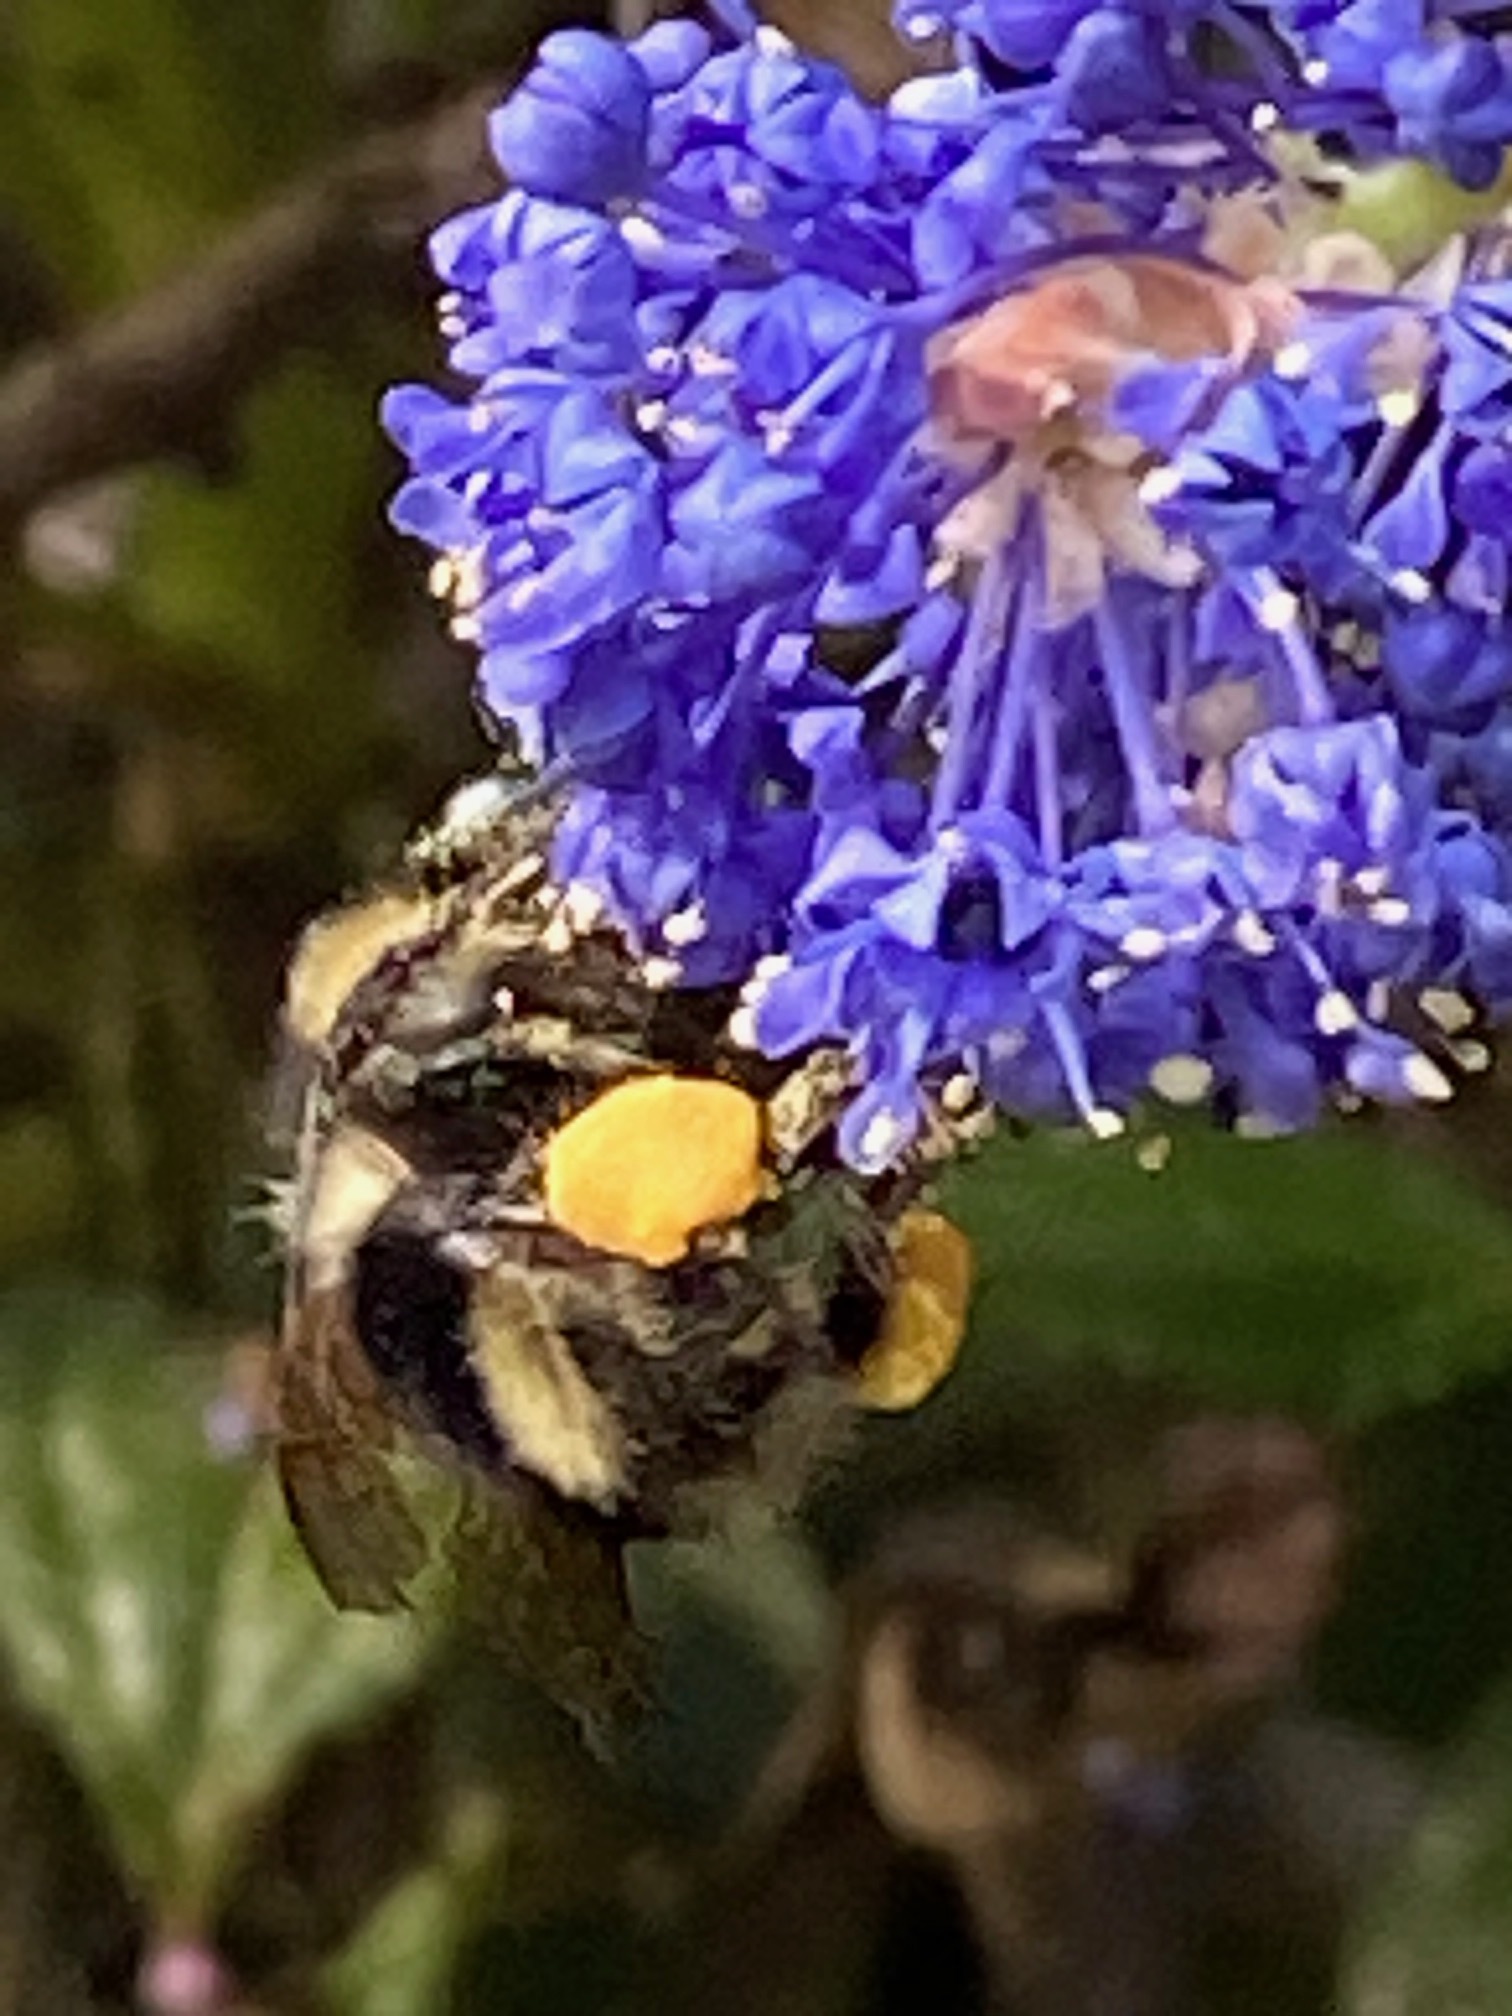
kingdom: Animalia
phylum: Arthropoda
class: Insecta
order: Hymenoptera
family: Apidae
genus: Bombus
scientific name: Bombus melanopygus
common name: Black tail bumble bee
